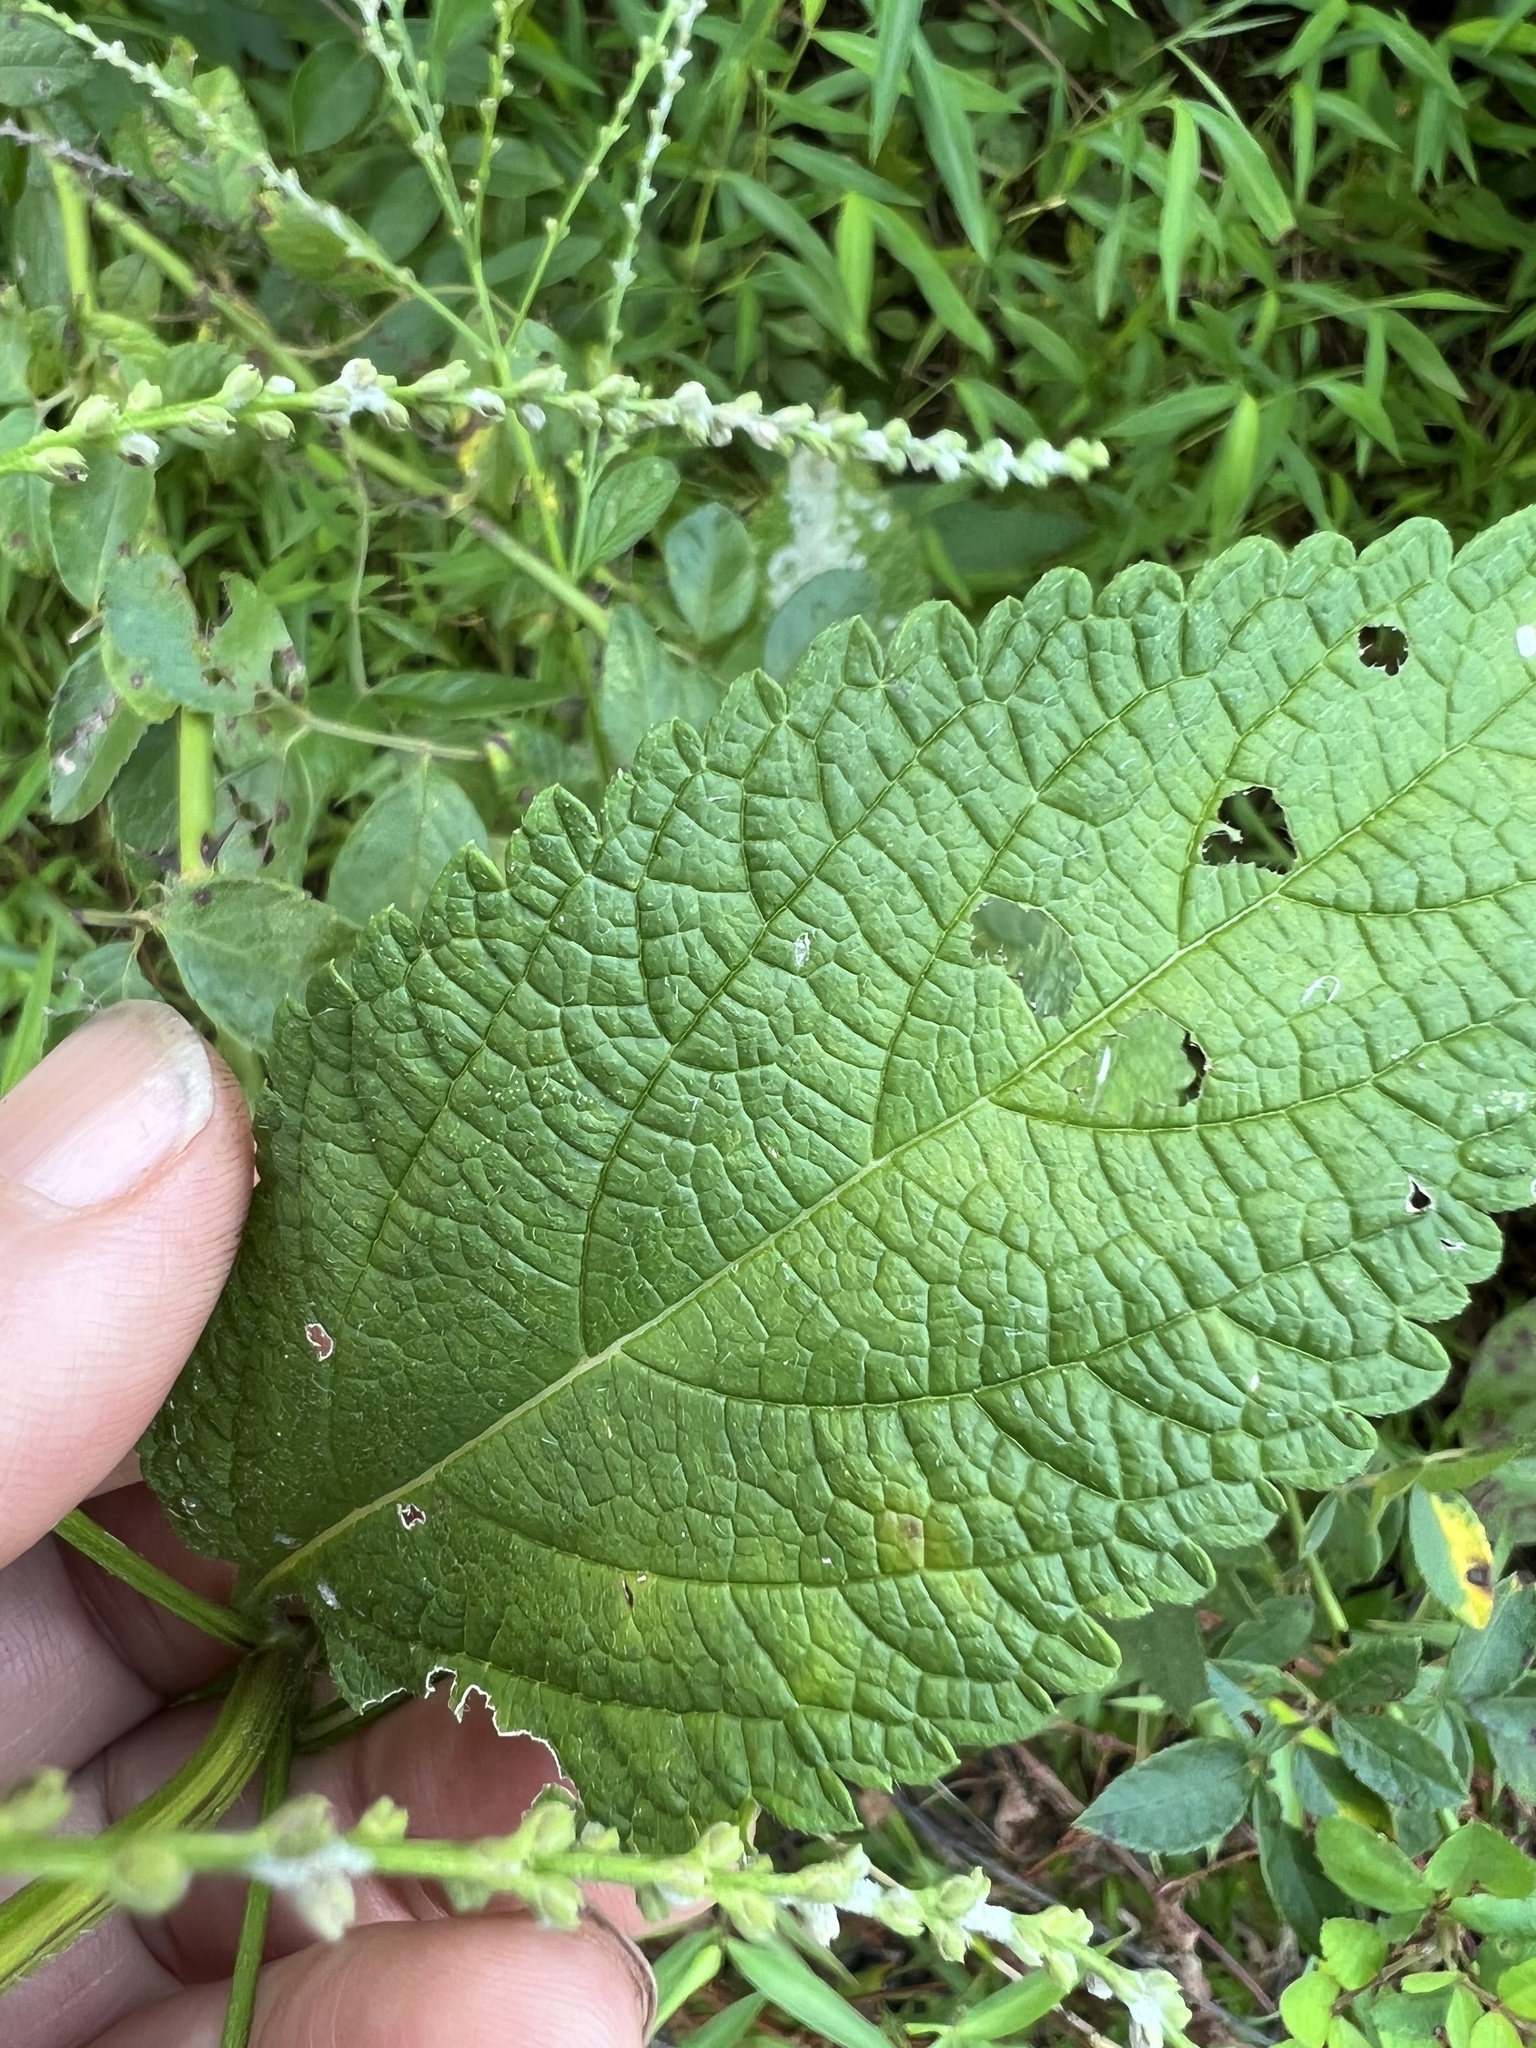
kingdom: Fungi
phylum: Ascomycota
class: Leotiomycetes
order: Helotiales
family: Erysiphaceae
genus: Golovinomyces
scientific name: Golovinomyces verbenae
